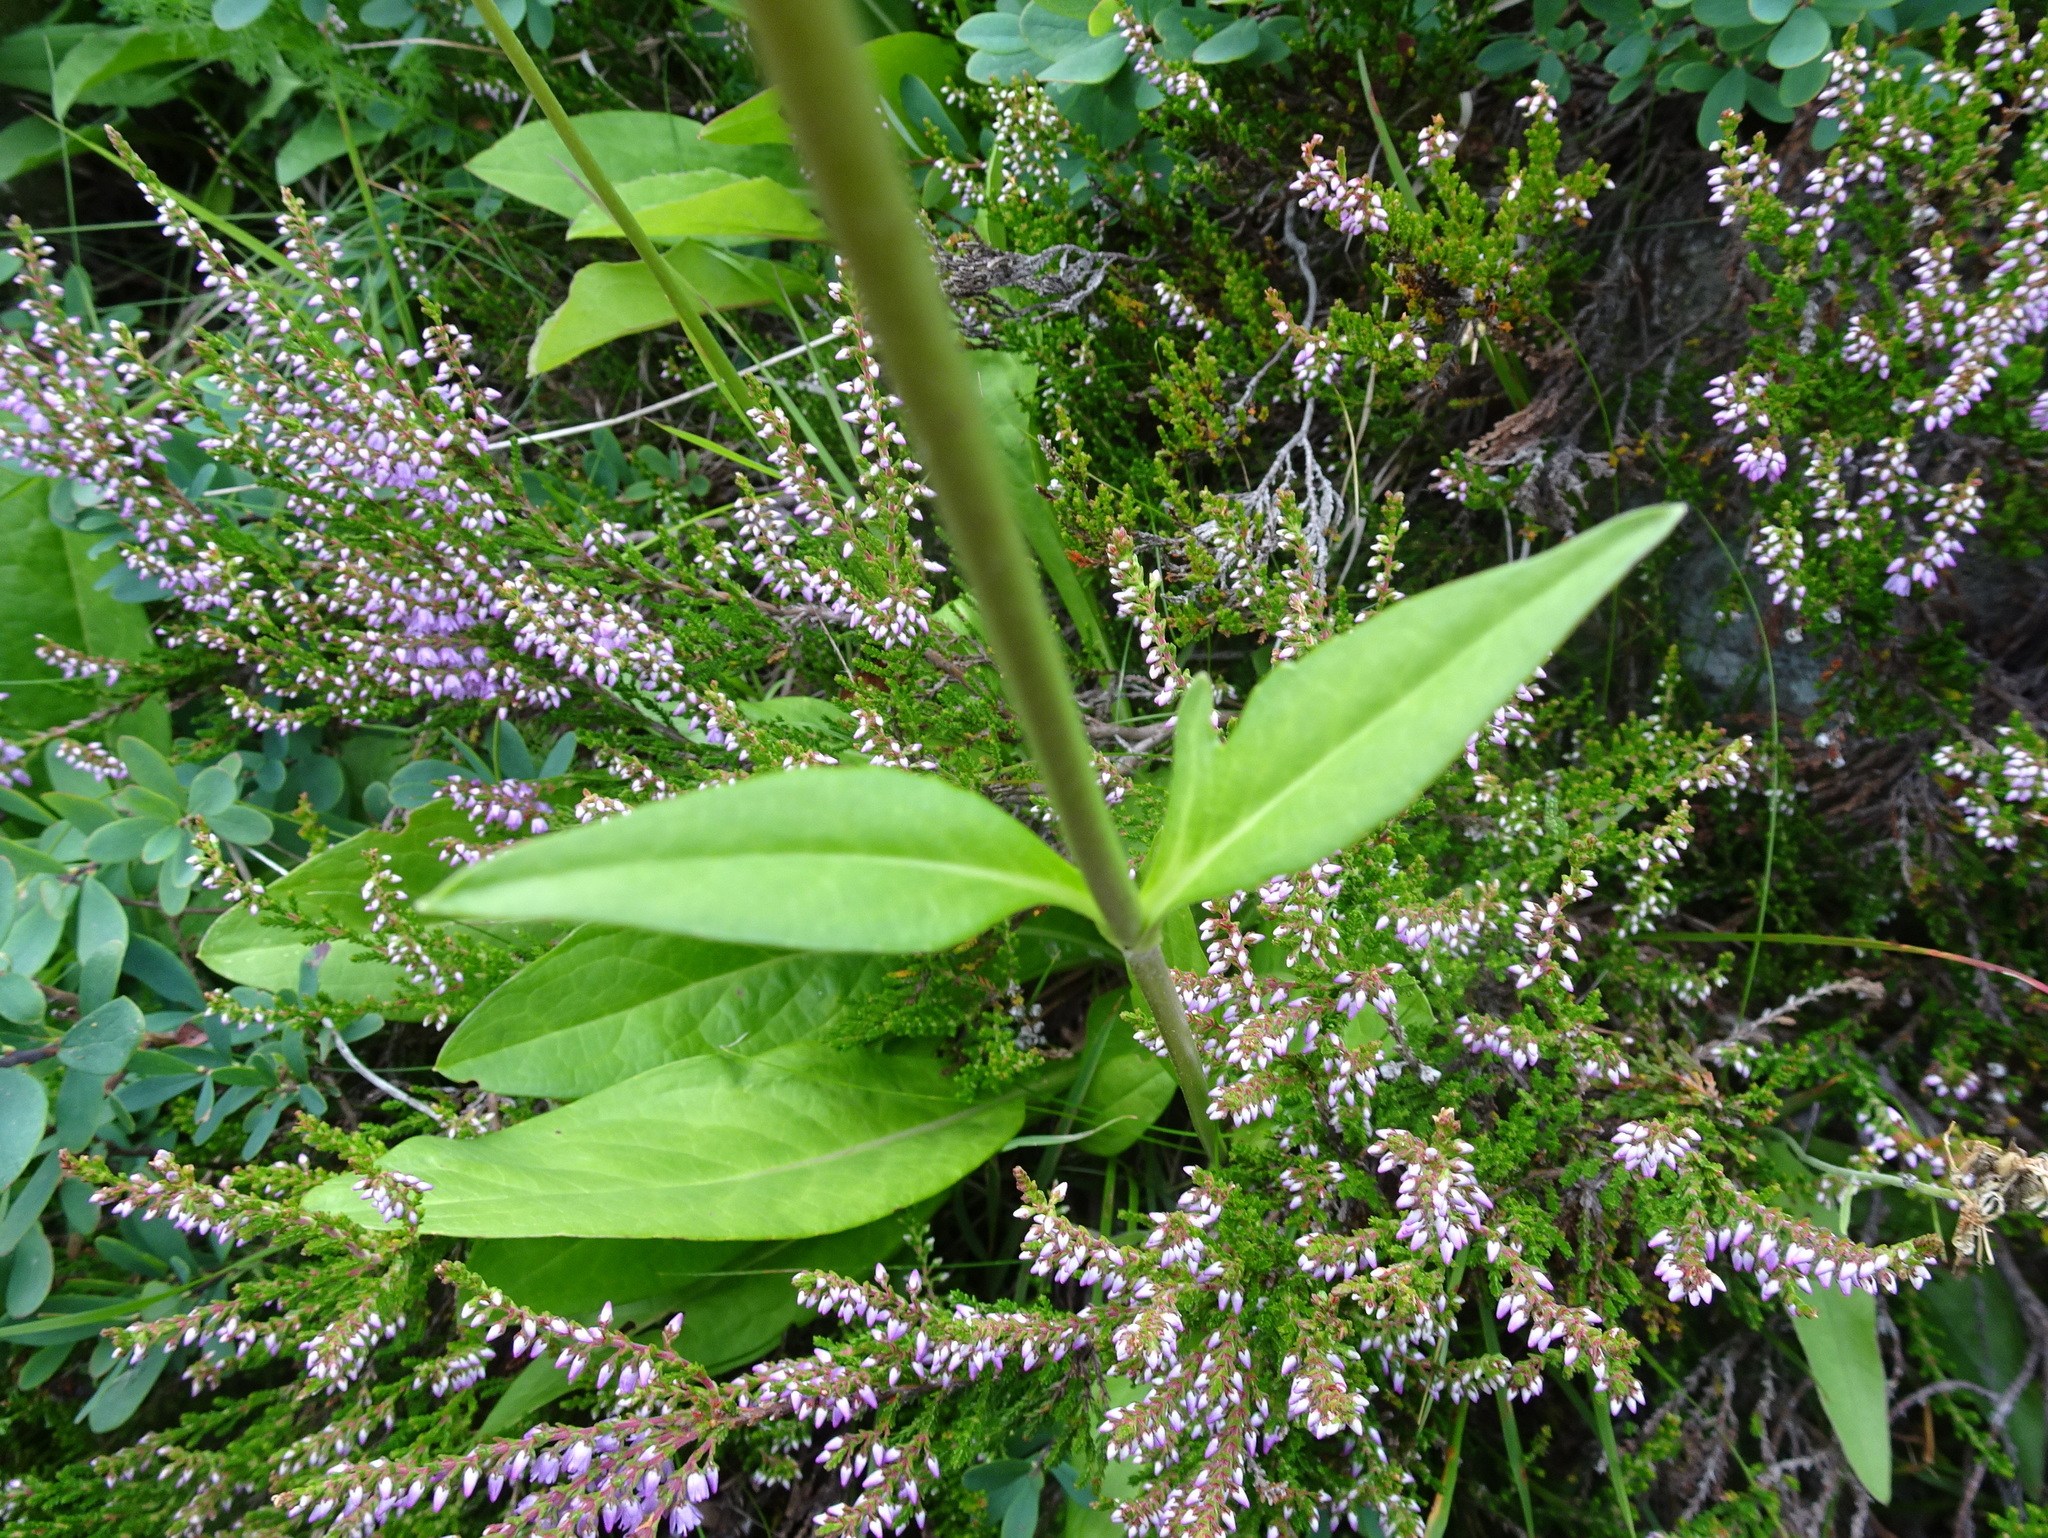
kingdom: Plantae
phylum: Tracheophyta
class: Magnoliopsida
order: Dipsacales
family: Caprifoliaceae
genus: Succisa
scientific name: Succisa pratensis
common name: Devil's-bit
